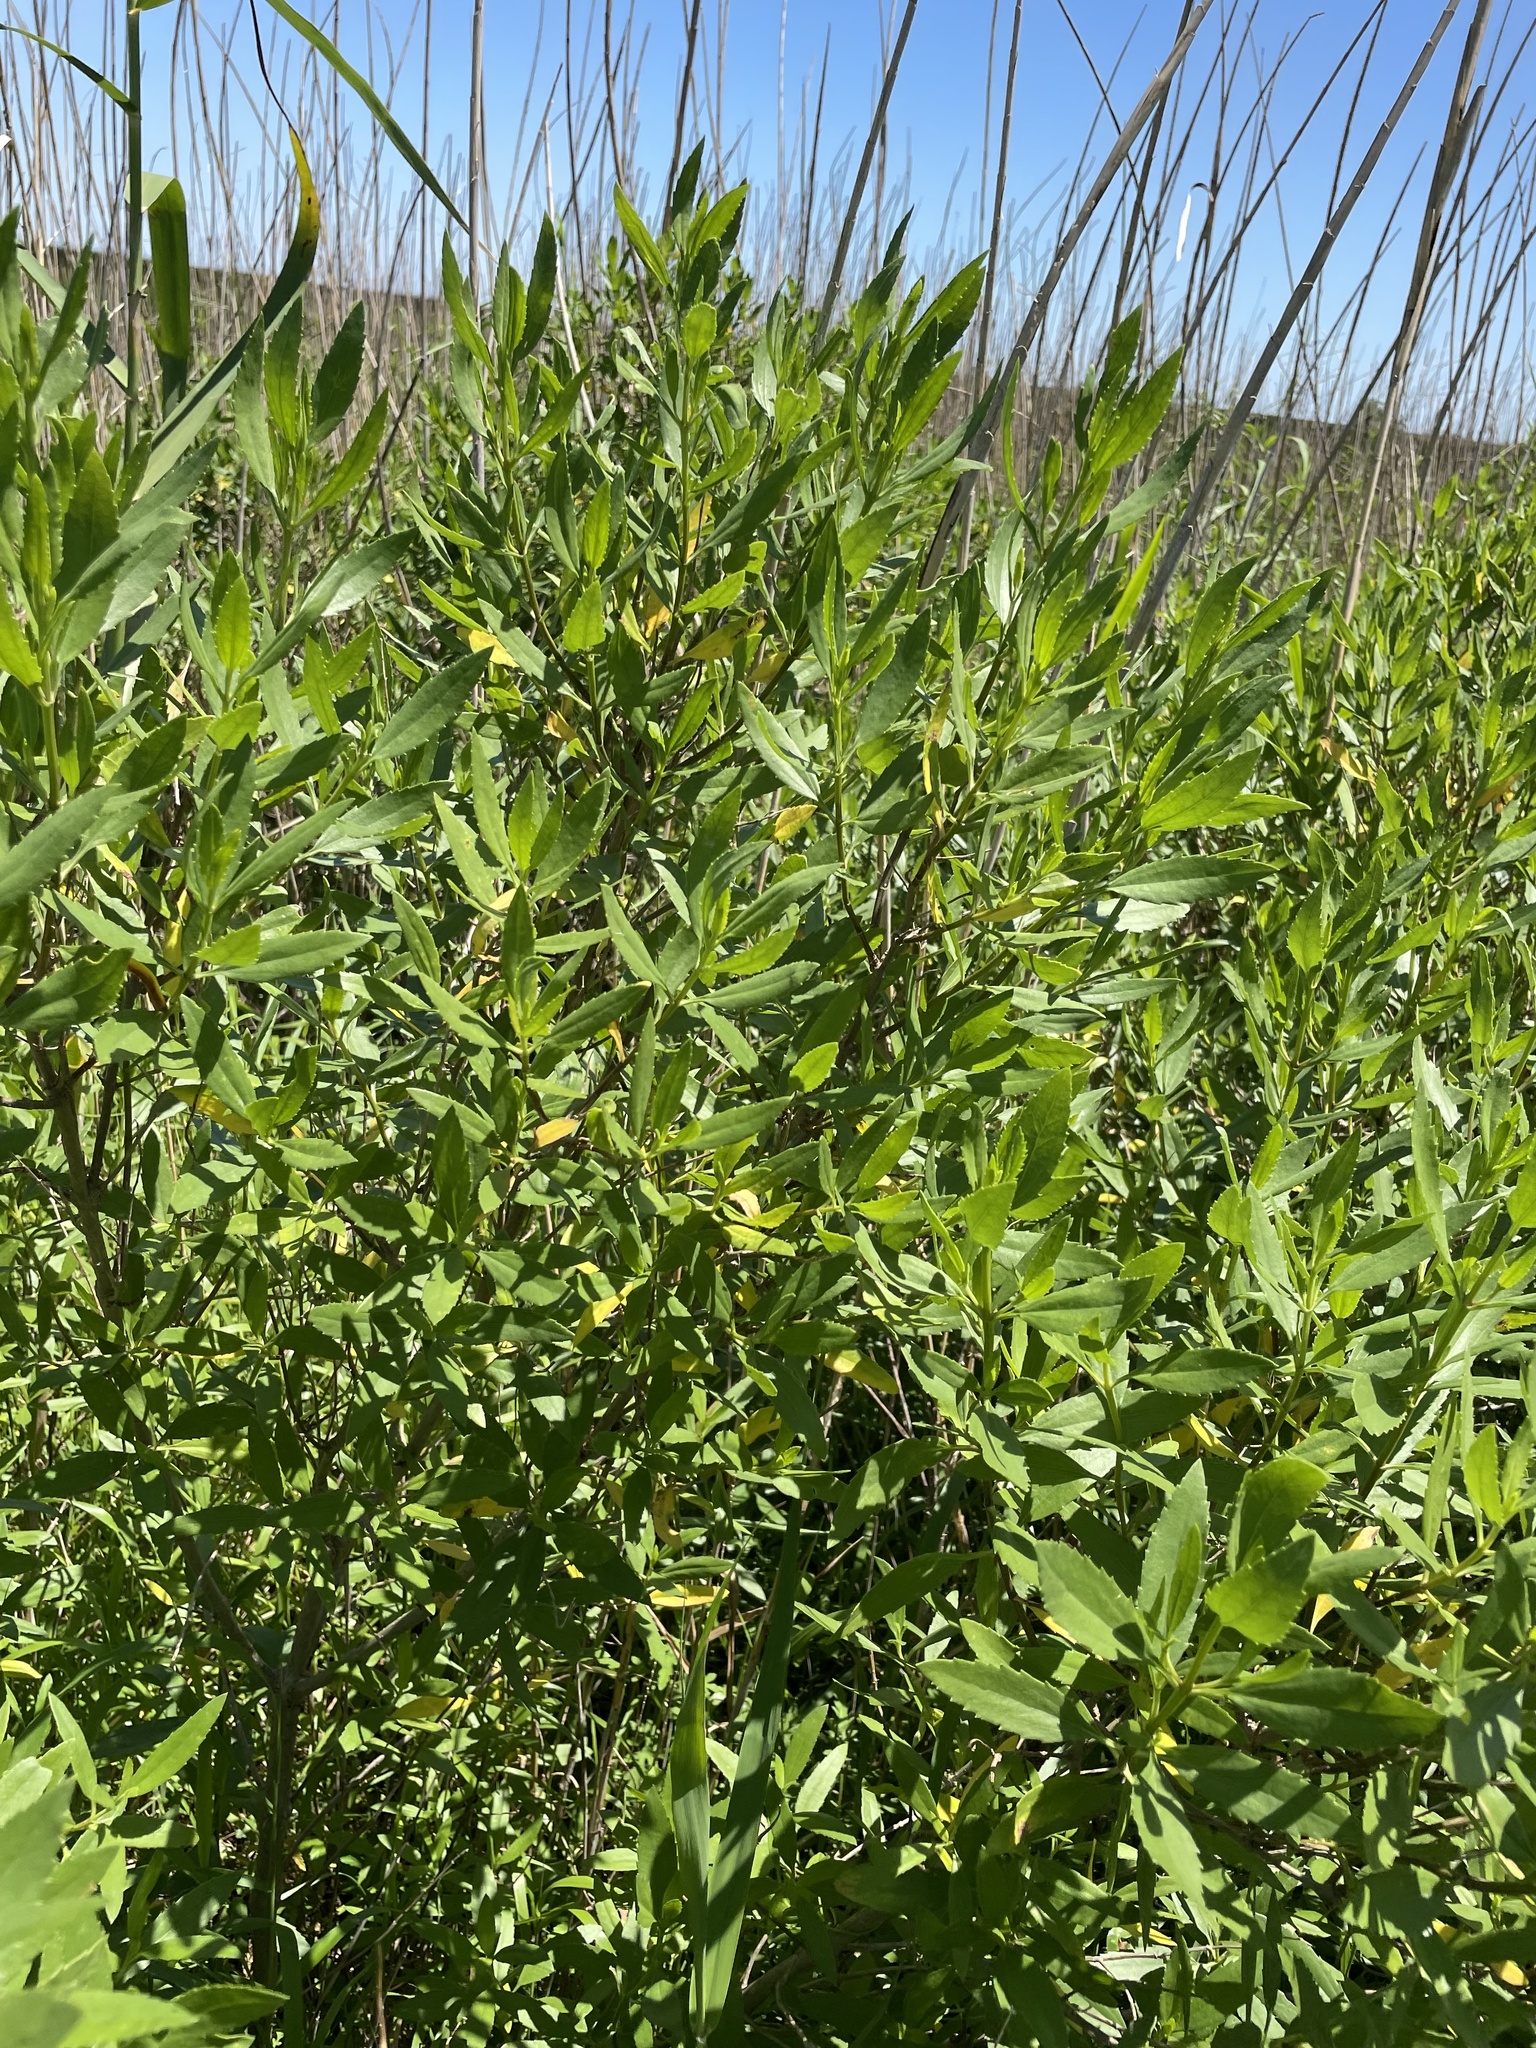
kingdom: Plantae
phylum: Tracheophyta
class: Magnoliopsida
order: Asterales
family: Asteraceae
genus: Iva
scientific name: Iva frutescens
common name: Big-leaved marsh-elder
